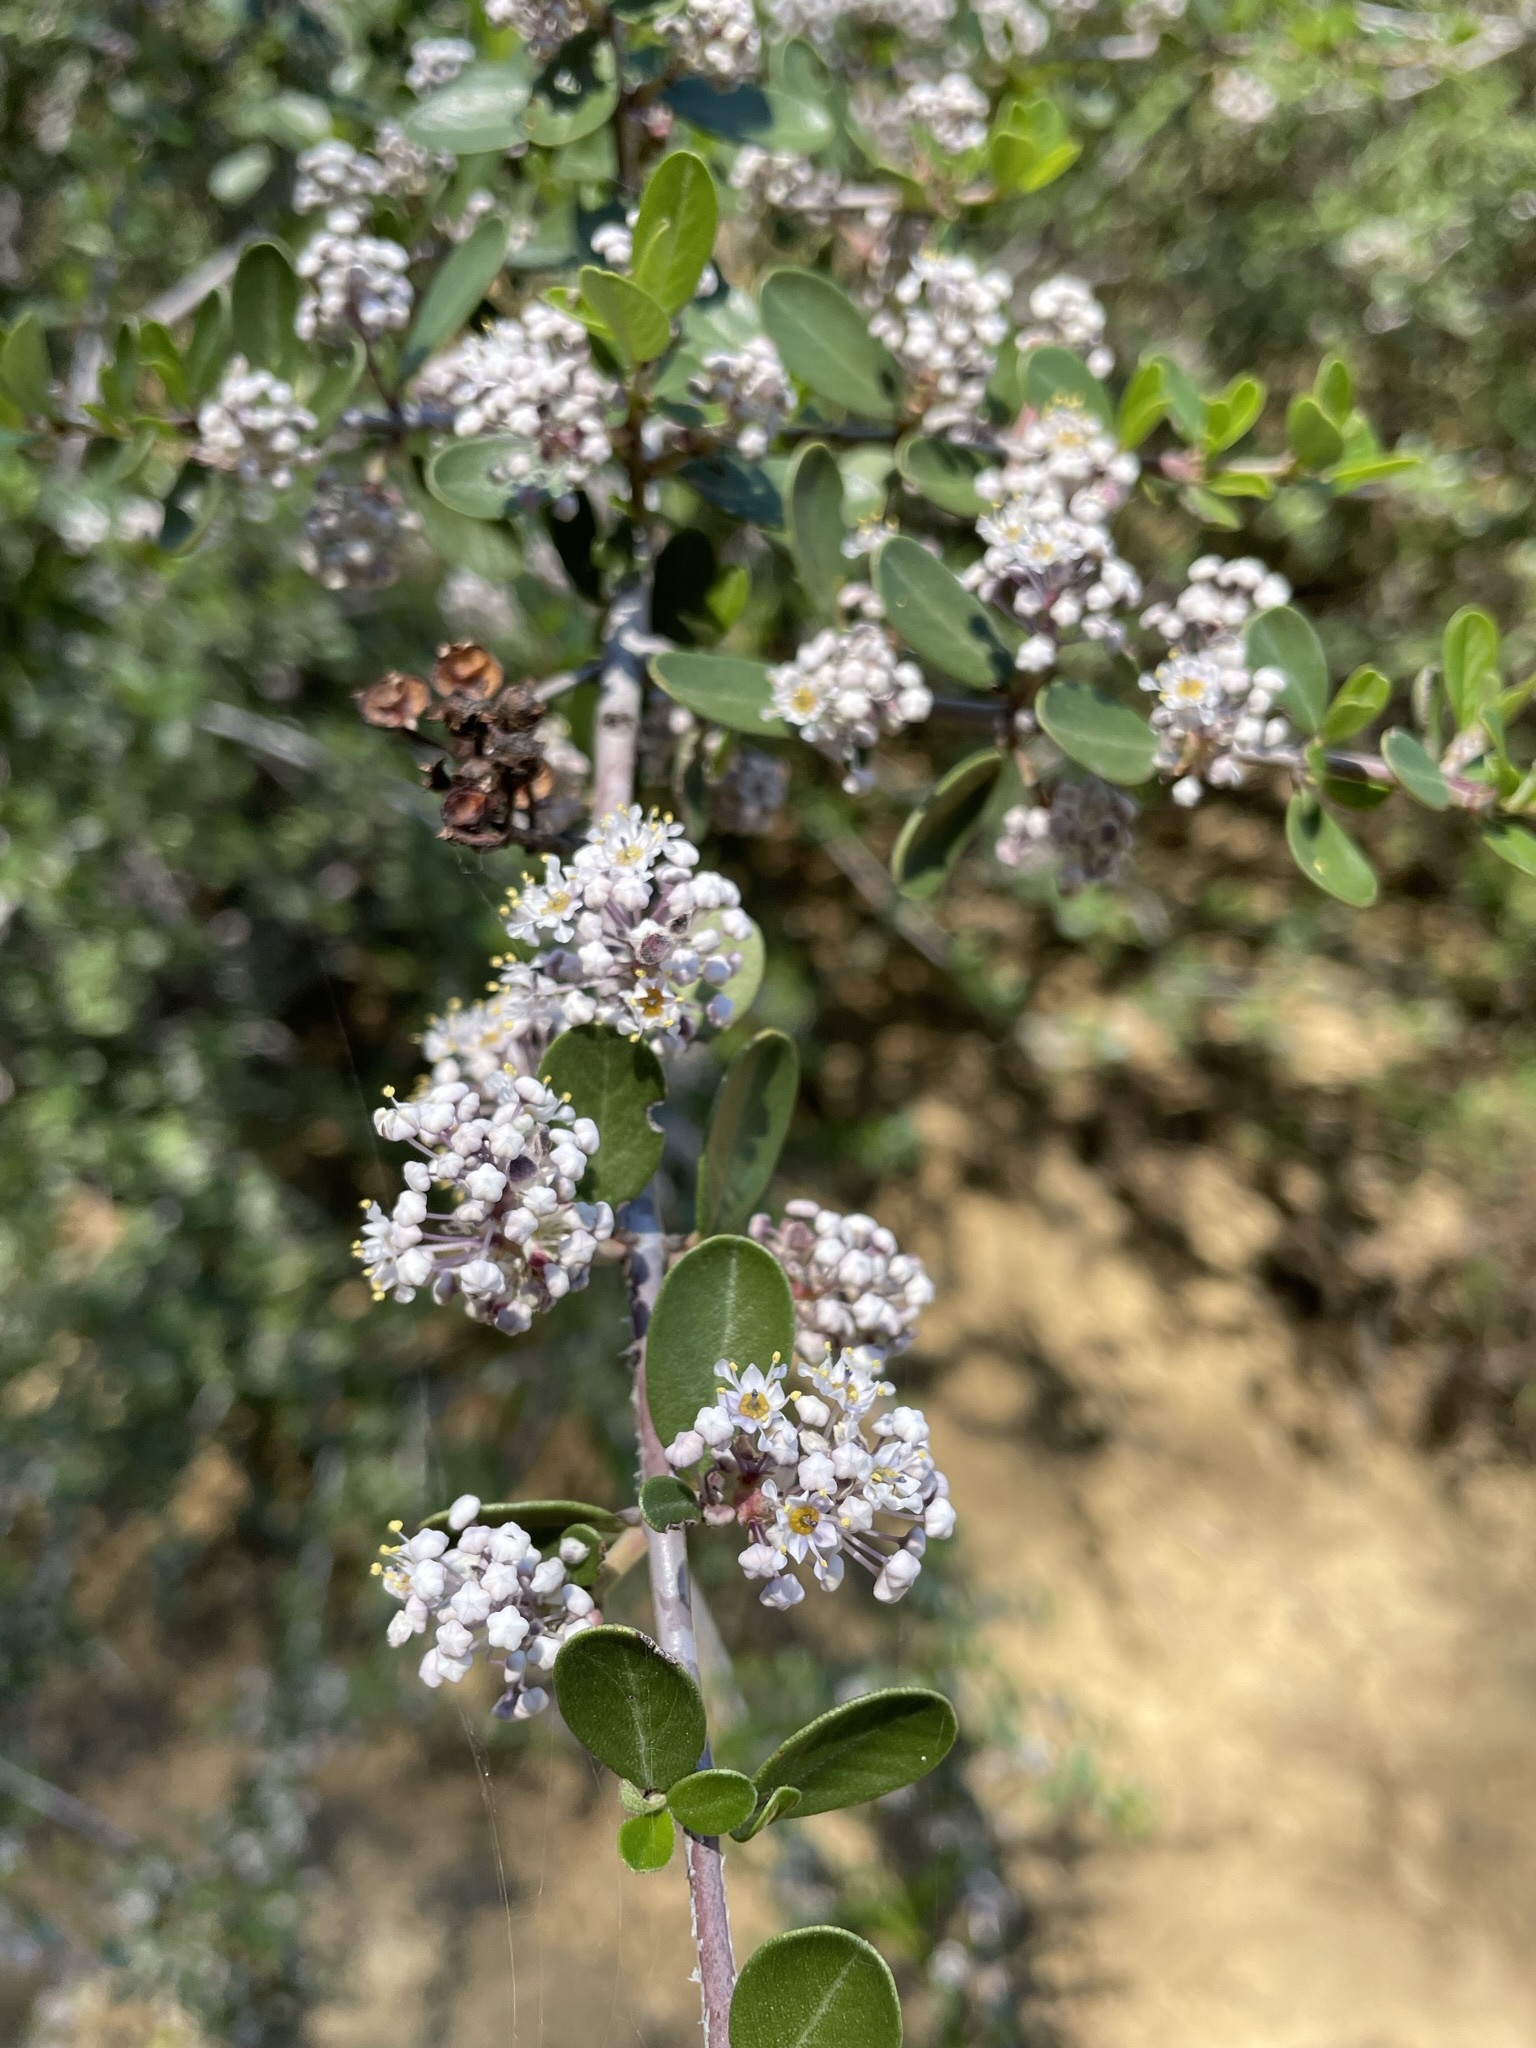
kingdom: Plantae
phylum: Tracheophyta
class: Magnoliopsida
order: Rosales
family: Rhamnaceae
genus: Ceanothus
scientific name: Ceanothus cuneatus
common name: Cuneate ceanothus
